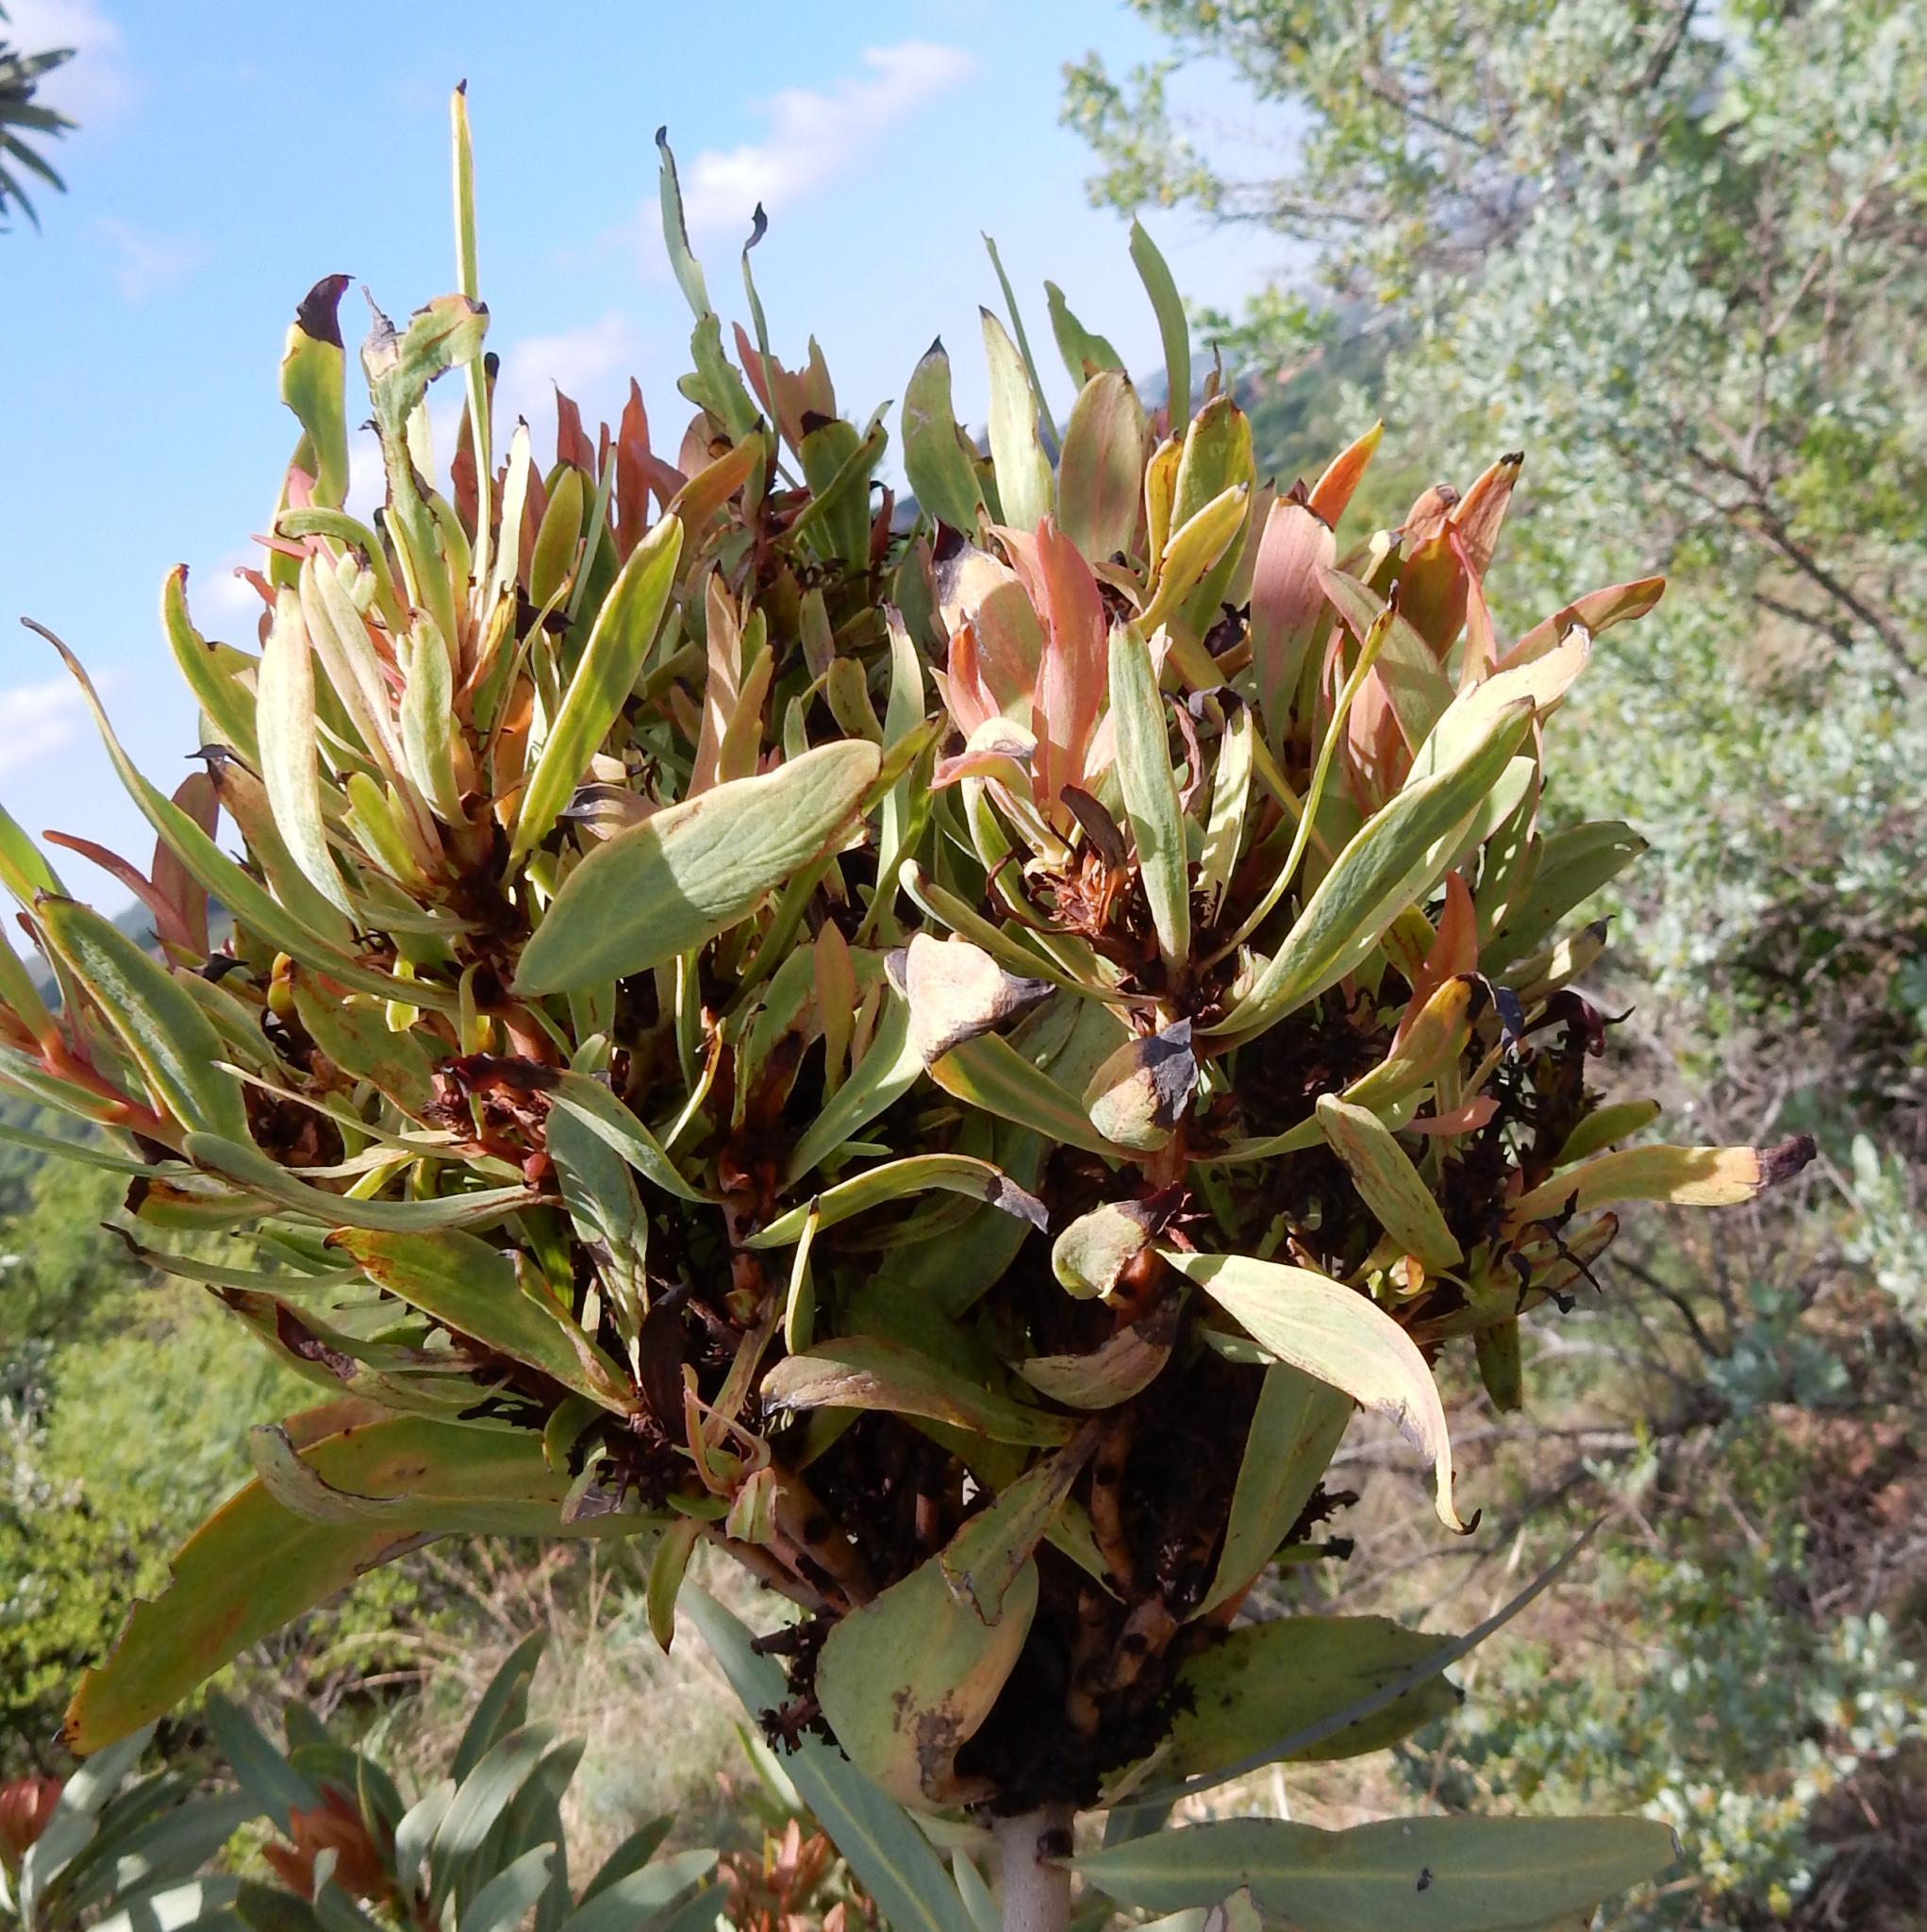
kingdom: Bacteria
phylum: Firmicutes
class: Bacilli
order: Acholeplasmatales
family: Acholeplasmataceae
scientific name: Acholeplasmataceae
